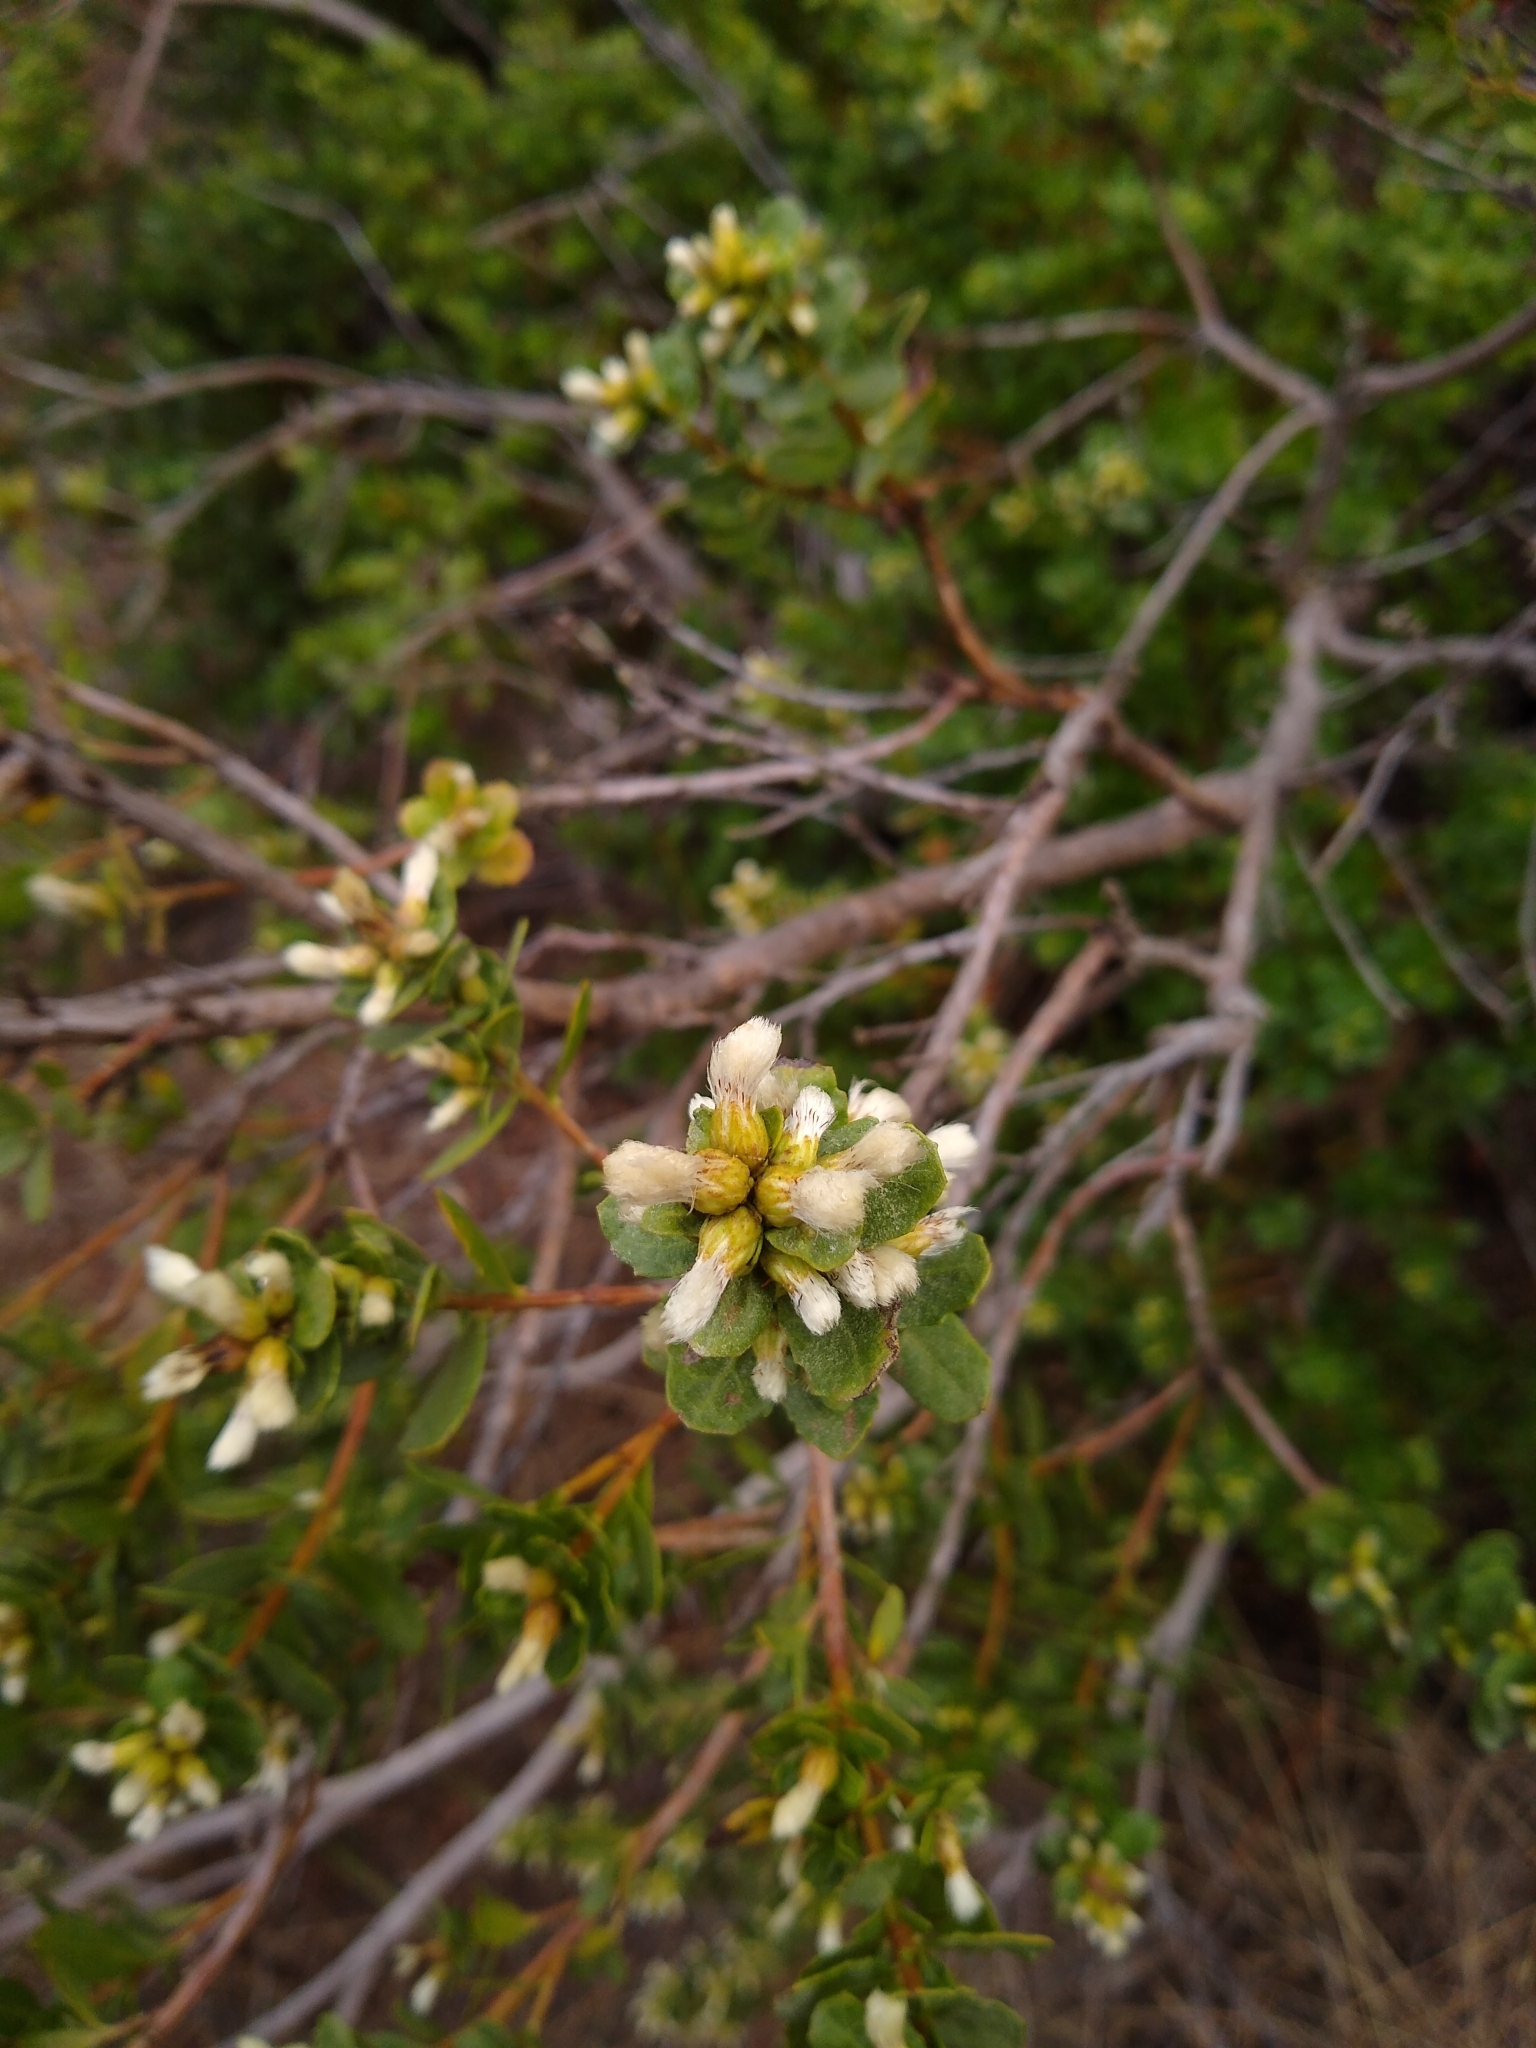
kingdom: Plantae
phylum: Tracheophyta
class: Magnoliopsida
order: Asterales
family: Asteraceae
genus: Baccharis
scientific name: Baccharis pilularis
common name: Coyotebrush
